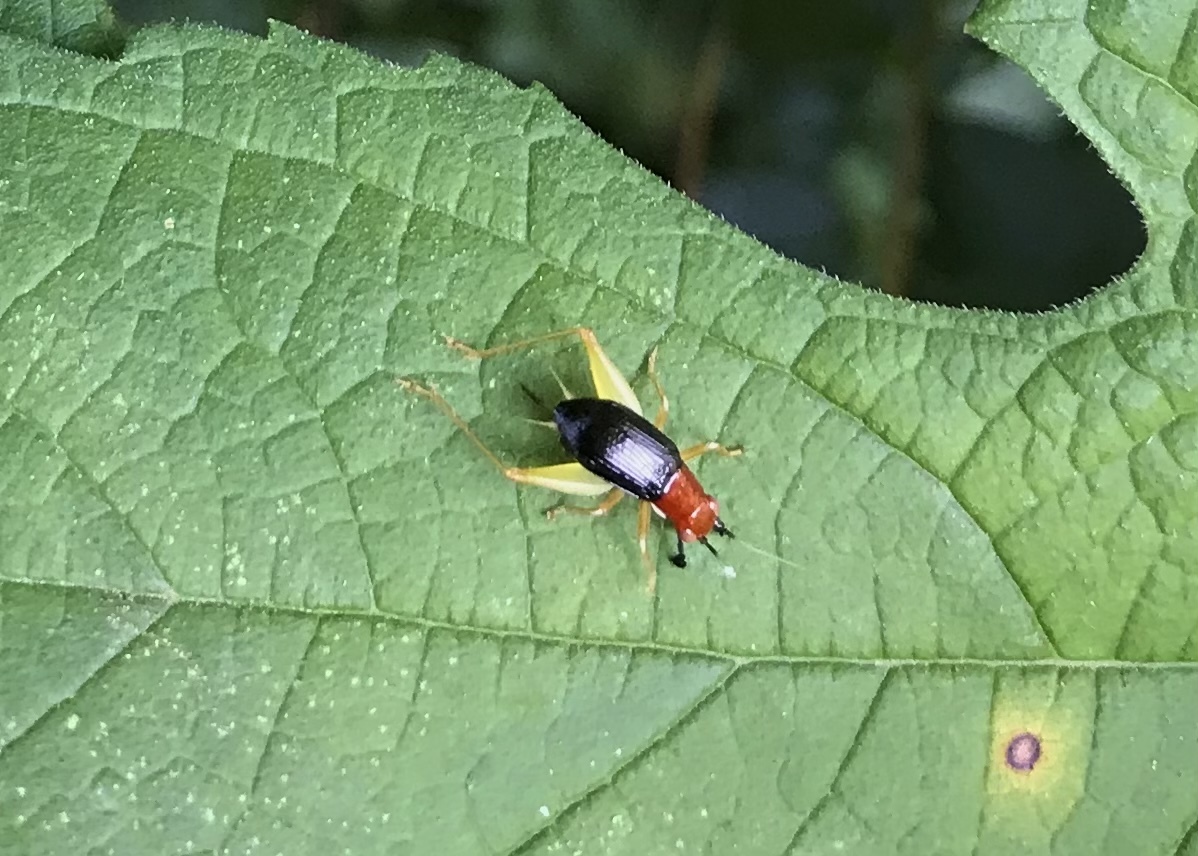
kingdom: Animalia
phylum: Arthropoda
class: Insecta
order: Orthoptera
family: Trigonidiidae
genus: Phyllopalpus
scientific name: Phyllopalpus pulchellus
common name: Handsome trig
